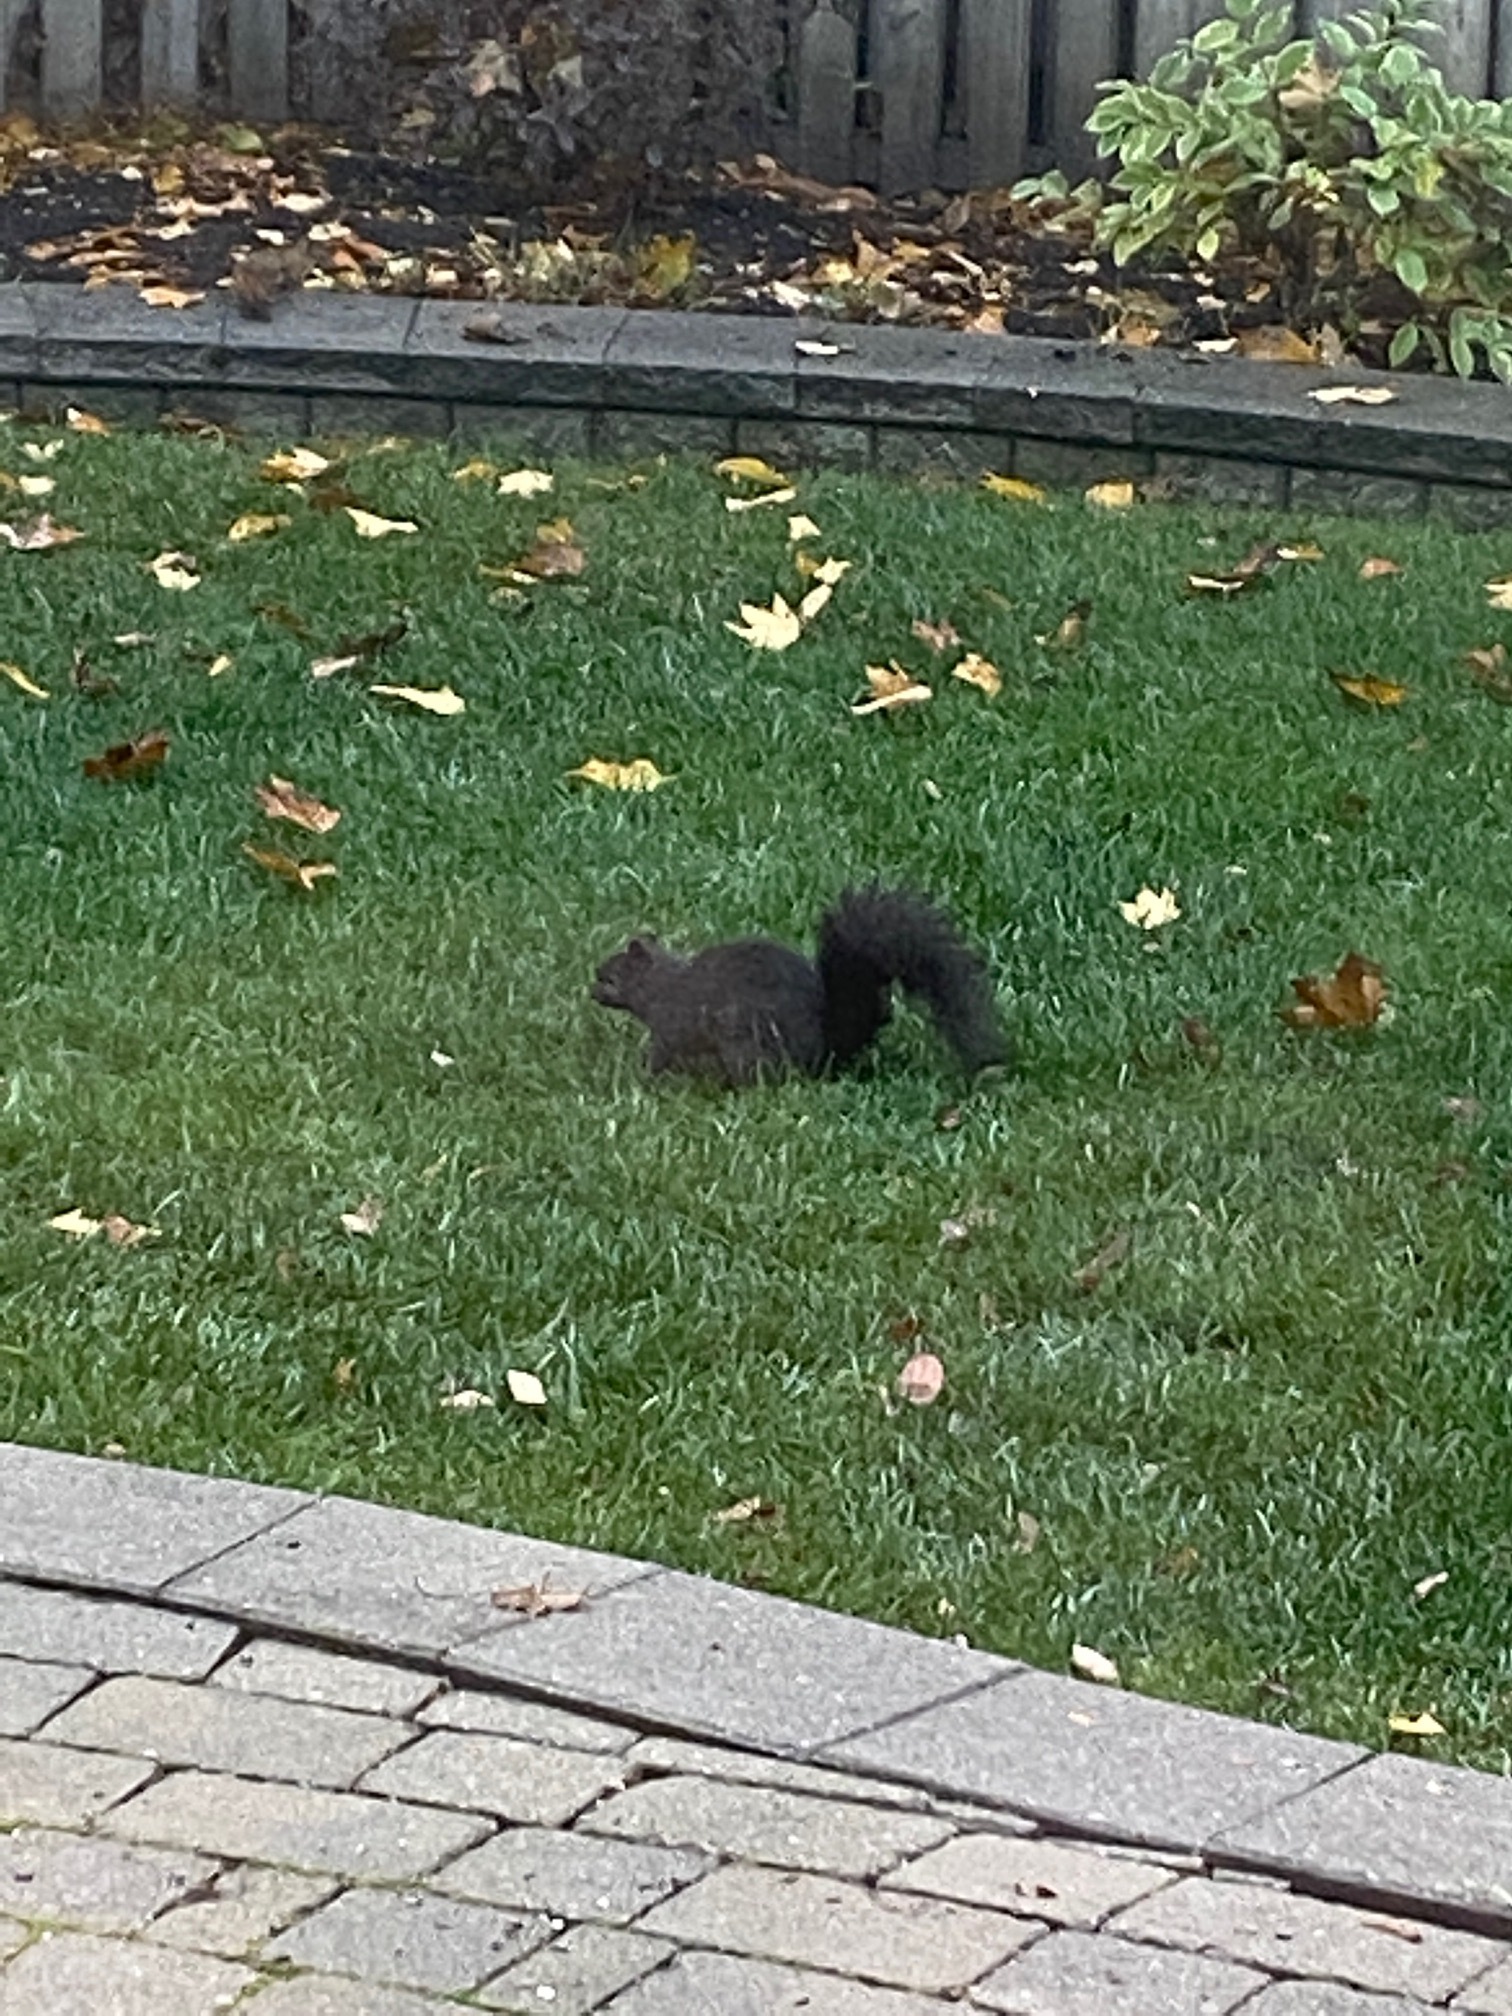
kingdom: Animalia
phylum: Chordata
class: Mammalia
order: Rodentia
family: Sciuridae
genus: Sciurus
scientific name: Sciurus carolinensis
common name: Eastern gray squirrel
